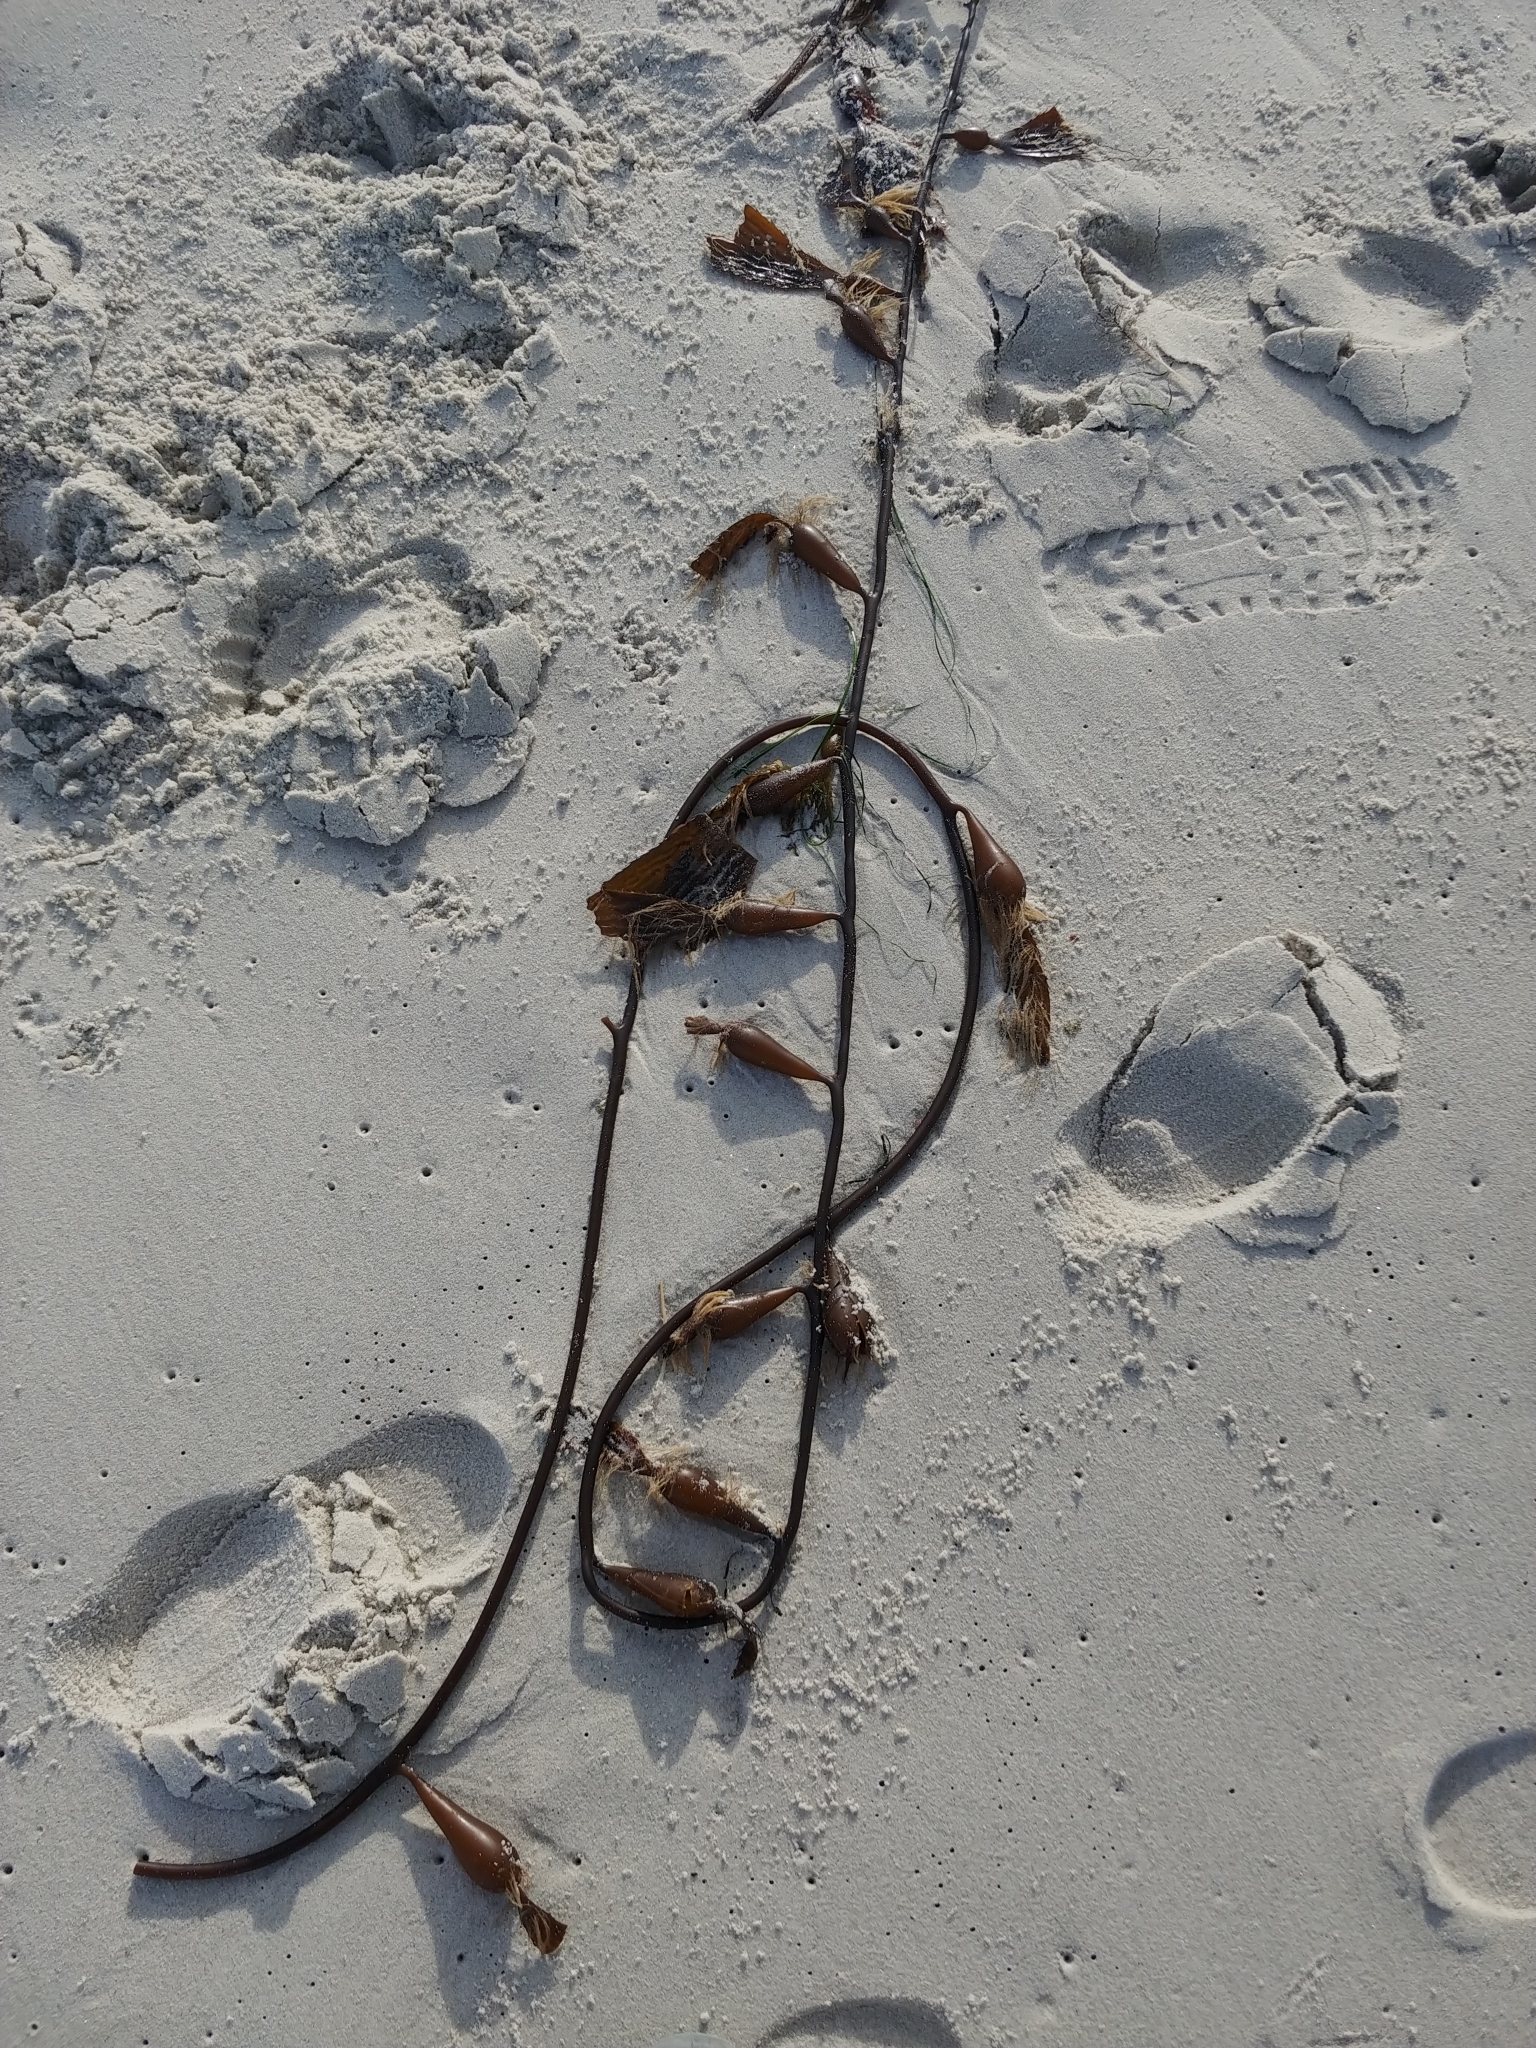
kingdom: Chromista
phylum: Ochrophyta
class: Phaeophyceae
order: Laminariales
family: Laminariaceae
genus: Macrocystis
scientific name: Macrocystis pyrifera
